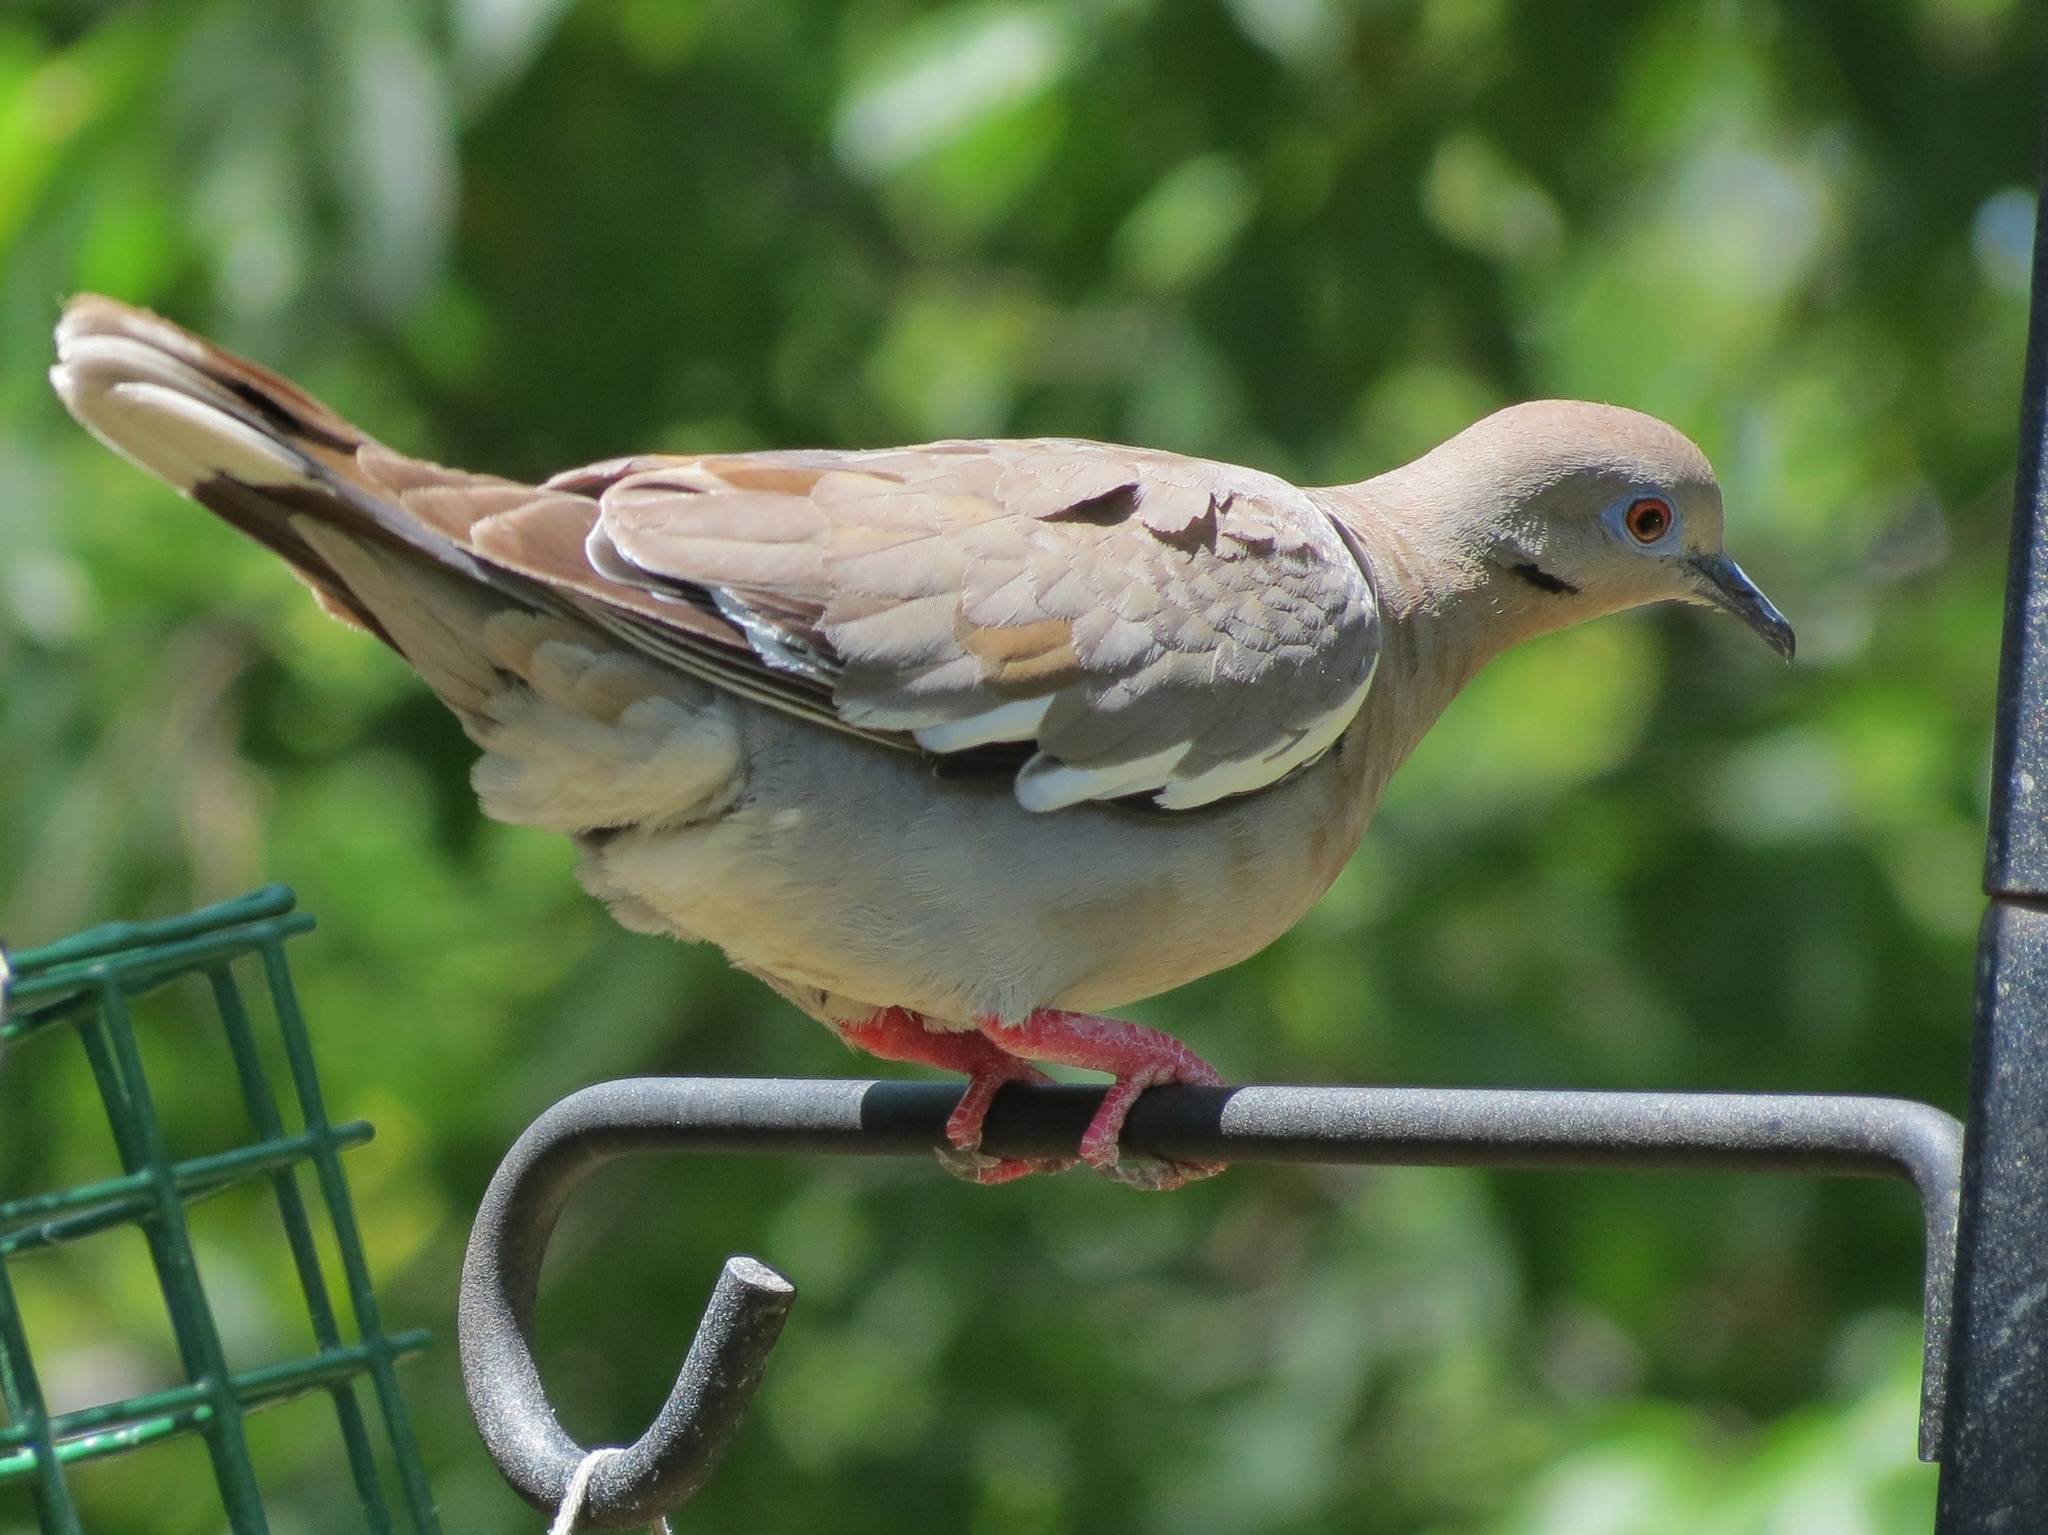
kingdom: Animalia
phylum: Chordata
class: Aves
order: Columbiformes
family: Columbidae
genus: Zenaida
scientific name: Zenaida asiatica
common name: White-winged dove
